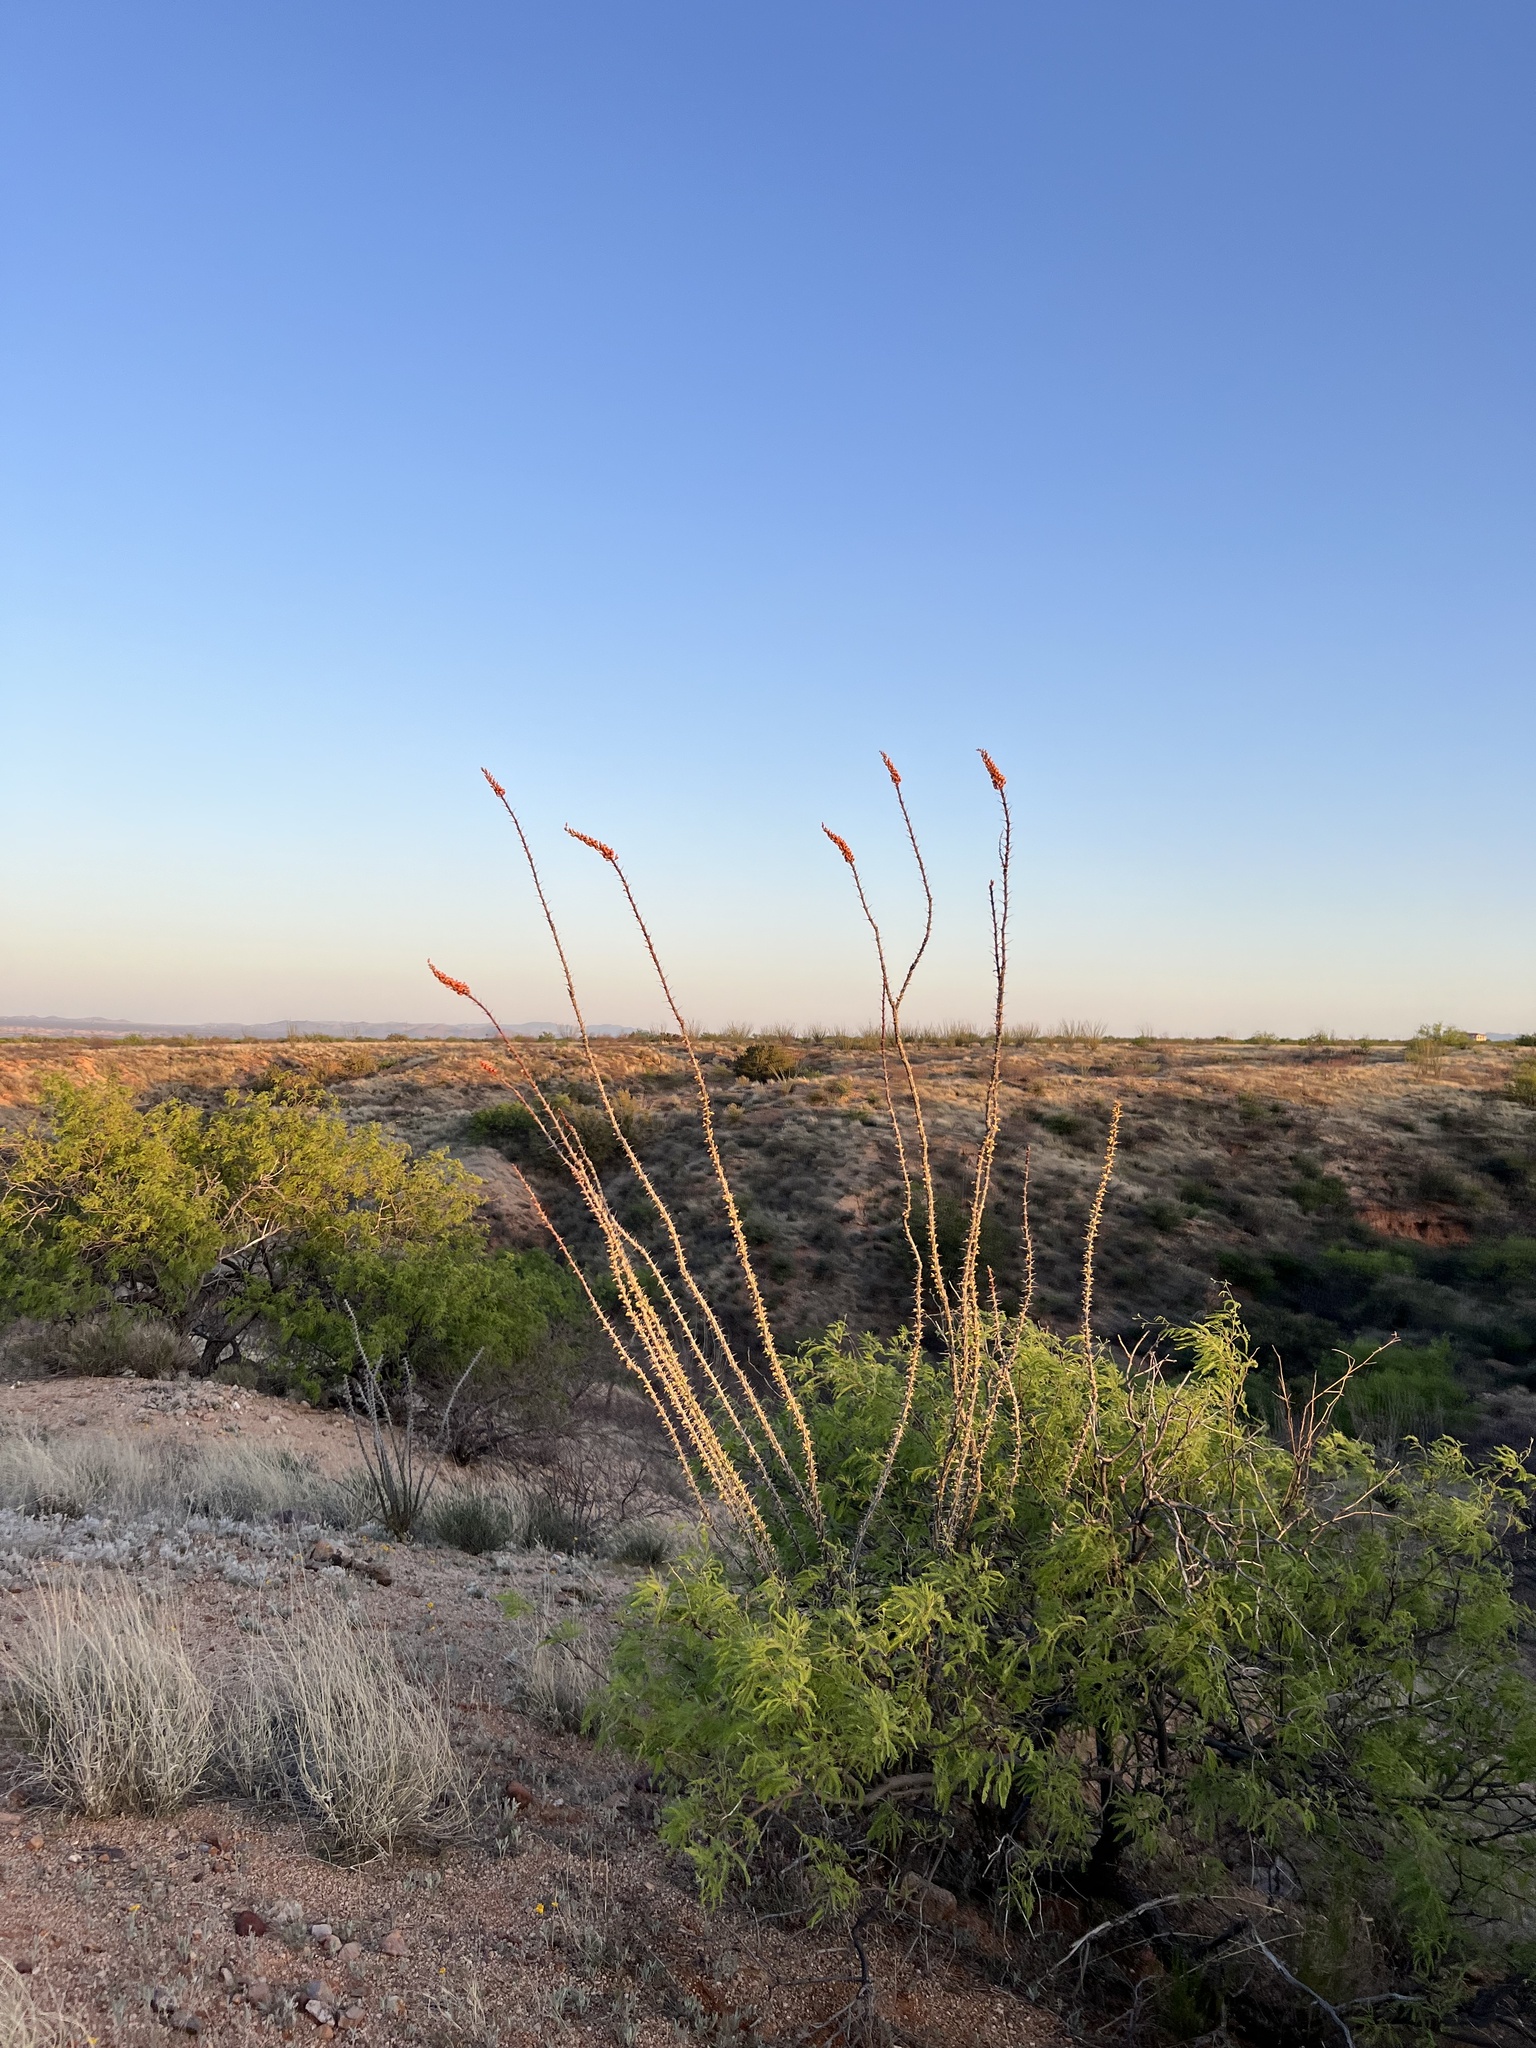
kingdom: Plantae
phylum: Tracheophyta
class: Magnoliopsida
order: Ericales
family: Fouquieriaceae
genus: Fouquieria
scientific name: Fouquieria splendens
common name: Vine-cactus
